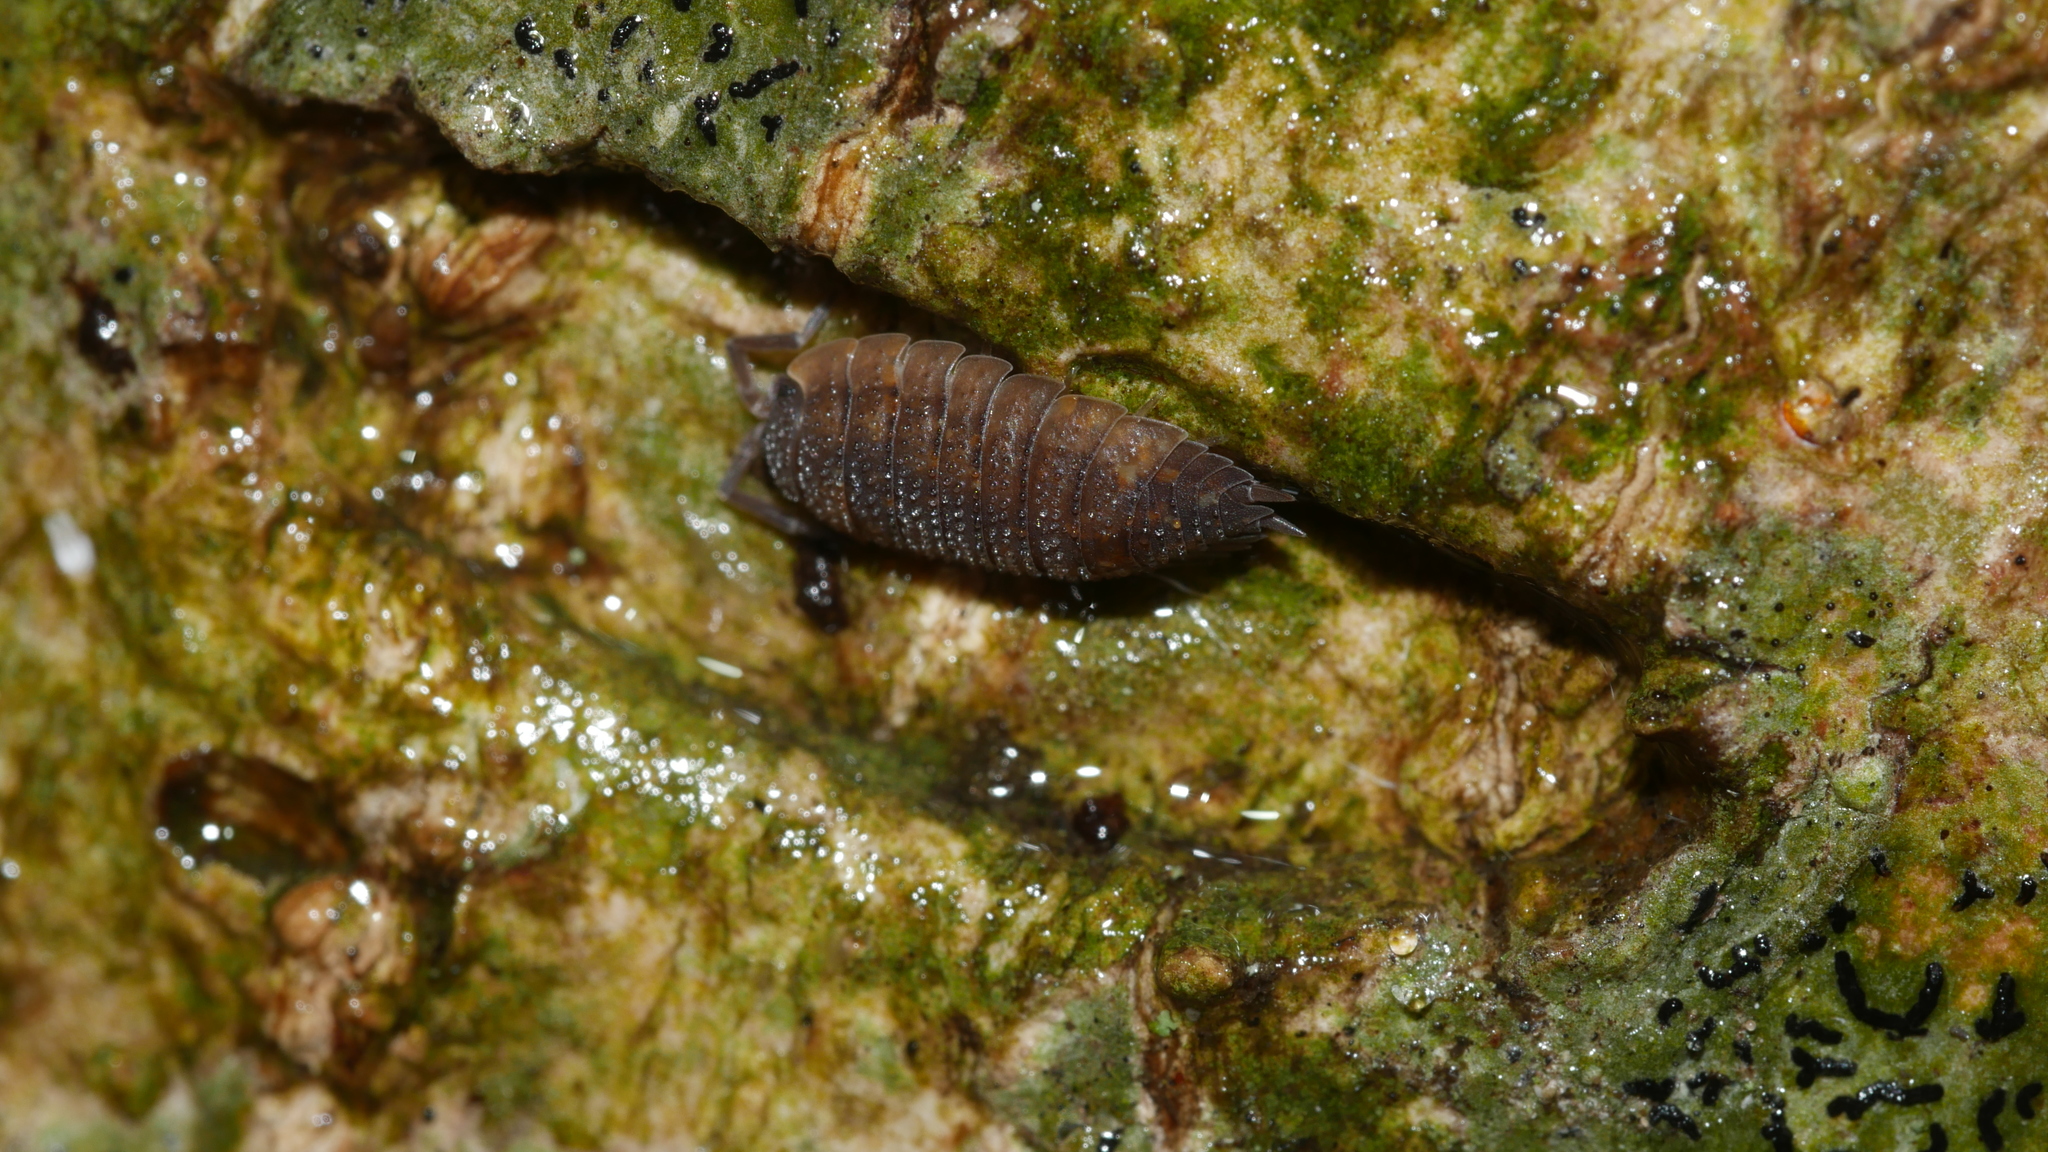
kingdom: Animalia
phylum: Arthropoda
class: Malacostraca
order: Isopoda
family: Porcellionidae
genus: Porcellio
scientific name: Porcellio scaber
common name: Common rough woodlouse
